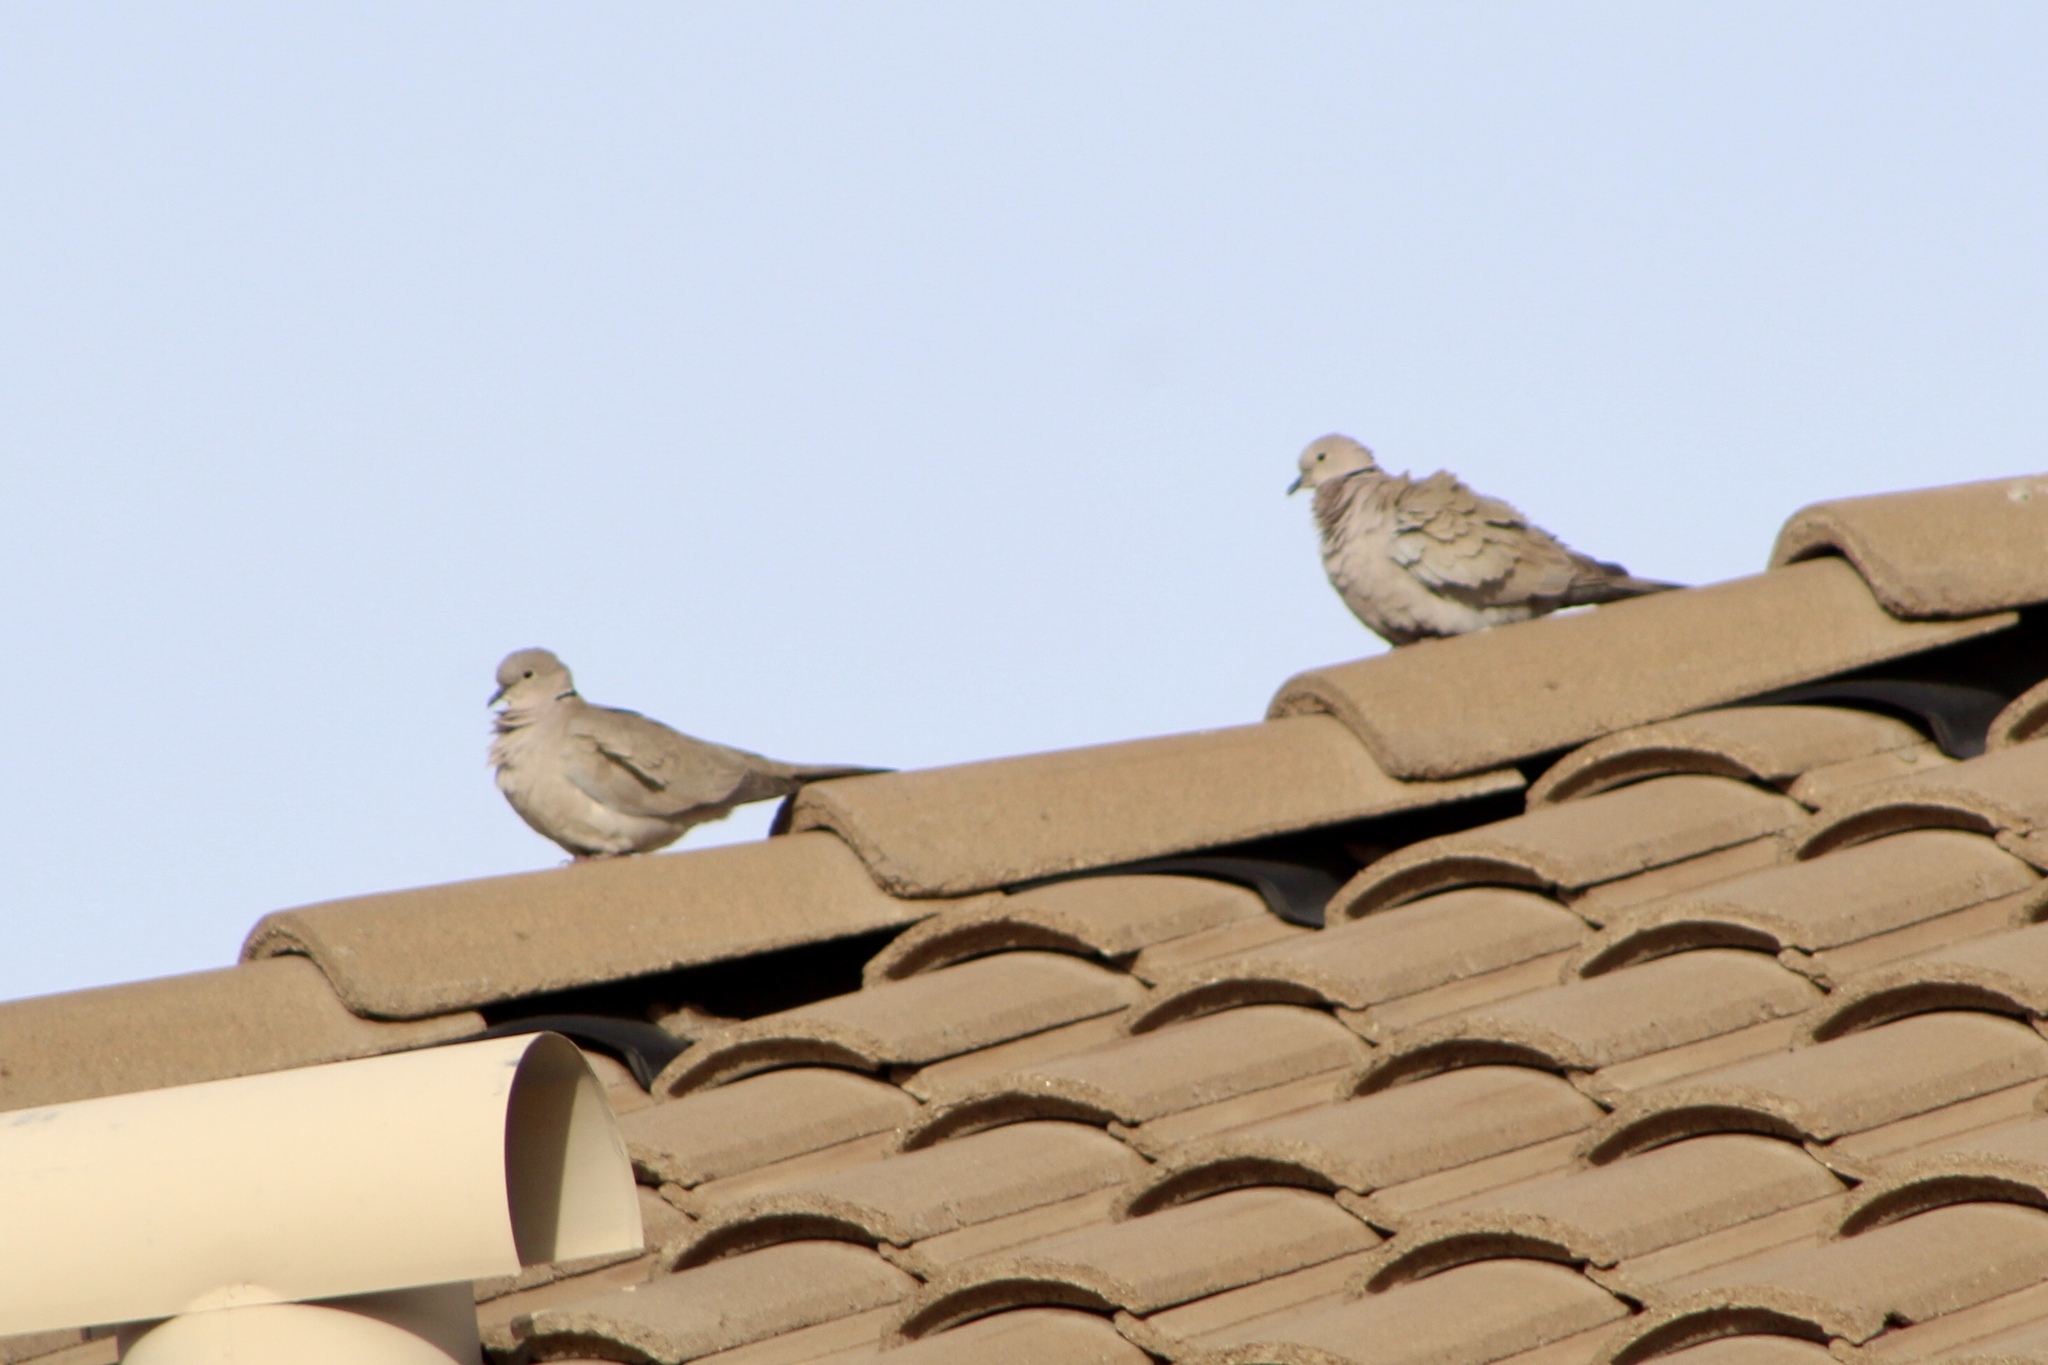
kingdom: Animalia
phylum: Chordata
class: Aves
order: Columbiformes
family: Columbidae
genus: Streptopelia
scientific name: Streptopelia decaocto
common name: Eurasian collared dove
